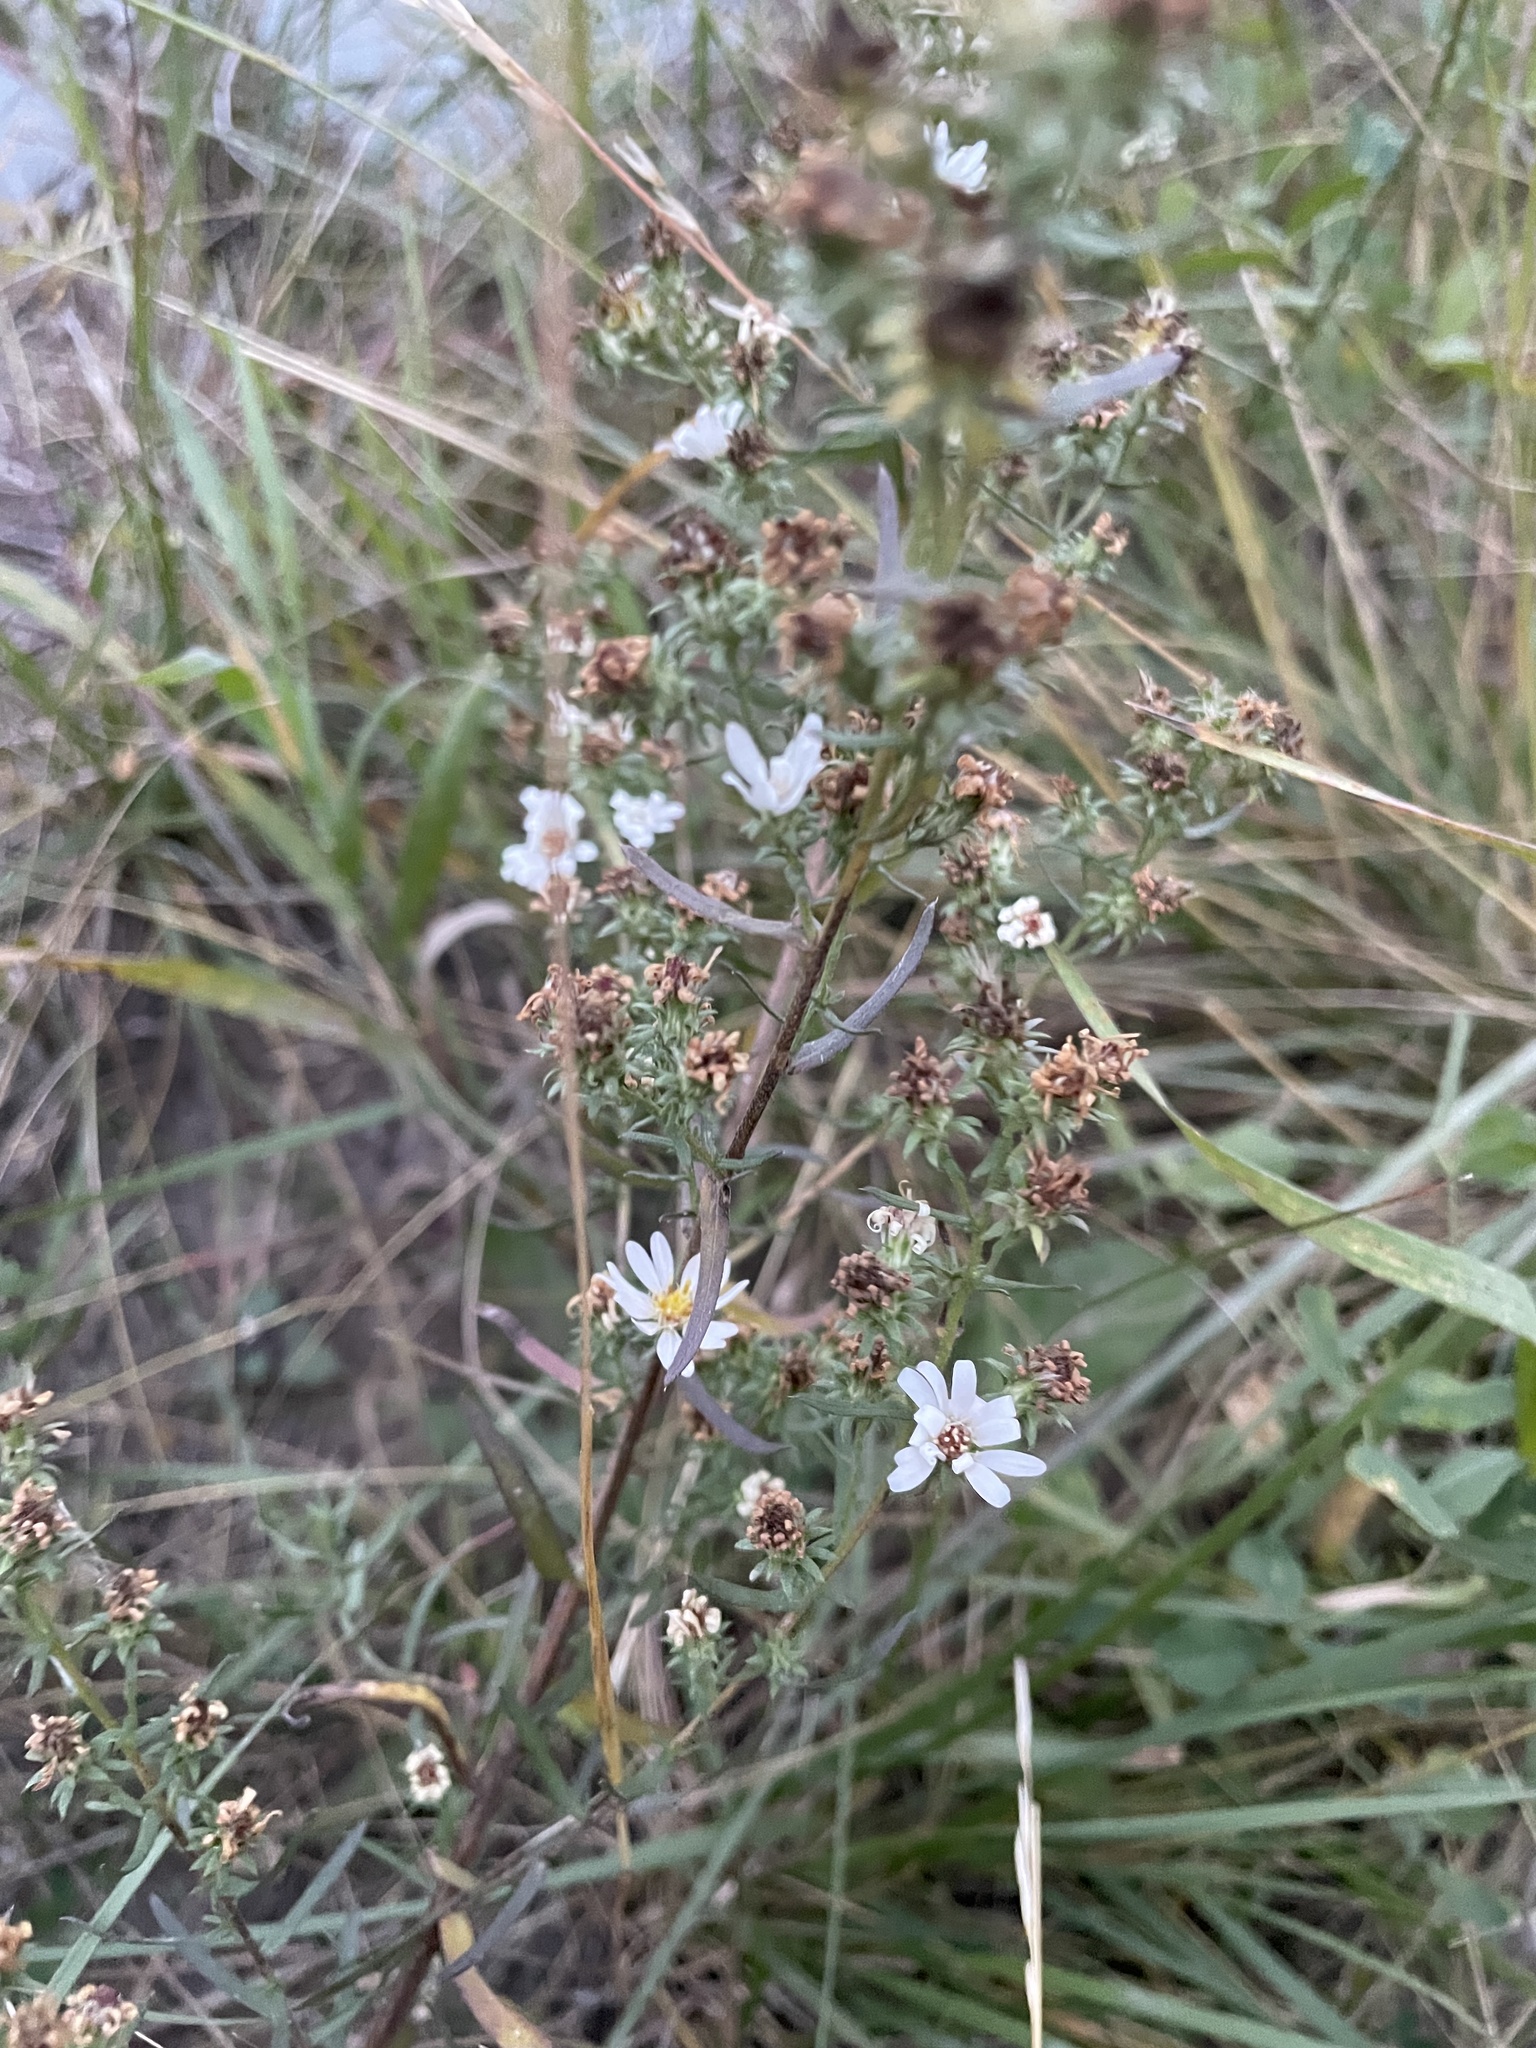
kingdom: Plantae
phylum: Tracheophyta
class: Magnoliopsida
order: Asterales
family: Asteraceae
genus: Symphyotrichum
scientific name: Symphyotrichum falcatum
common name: Creeping white prairie aster
